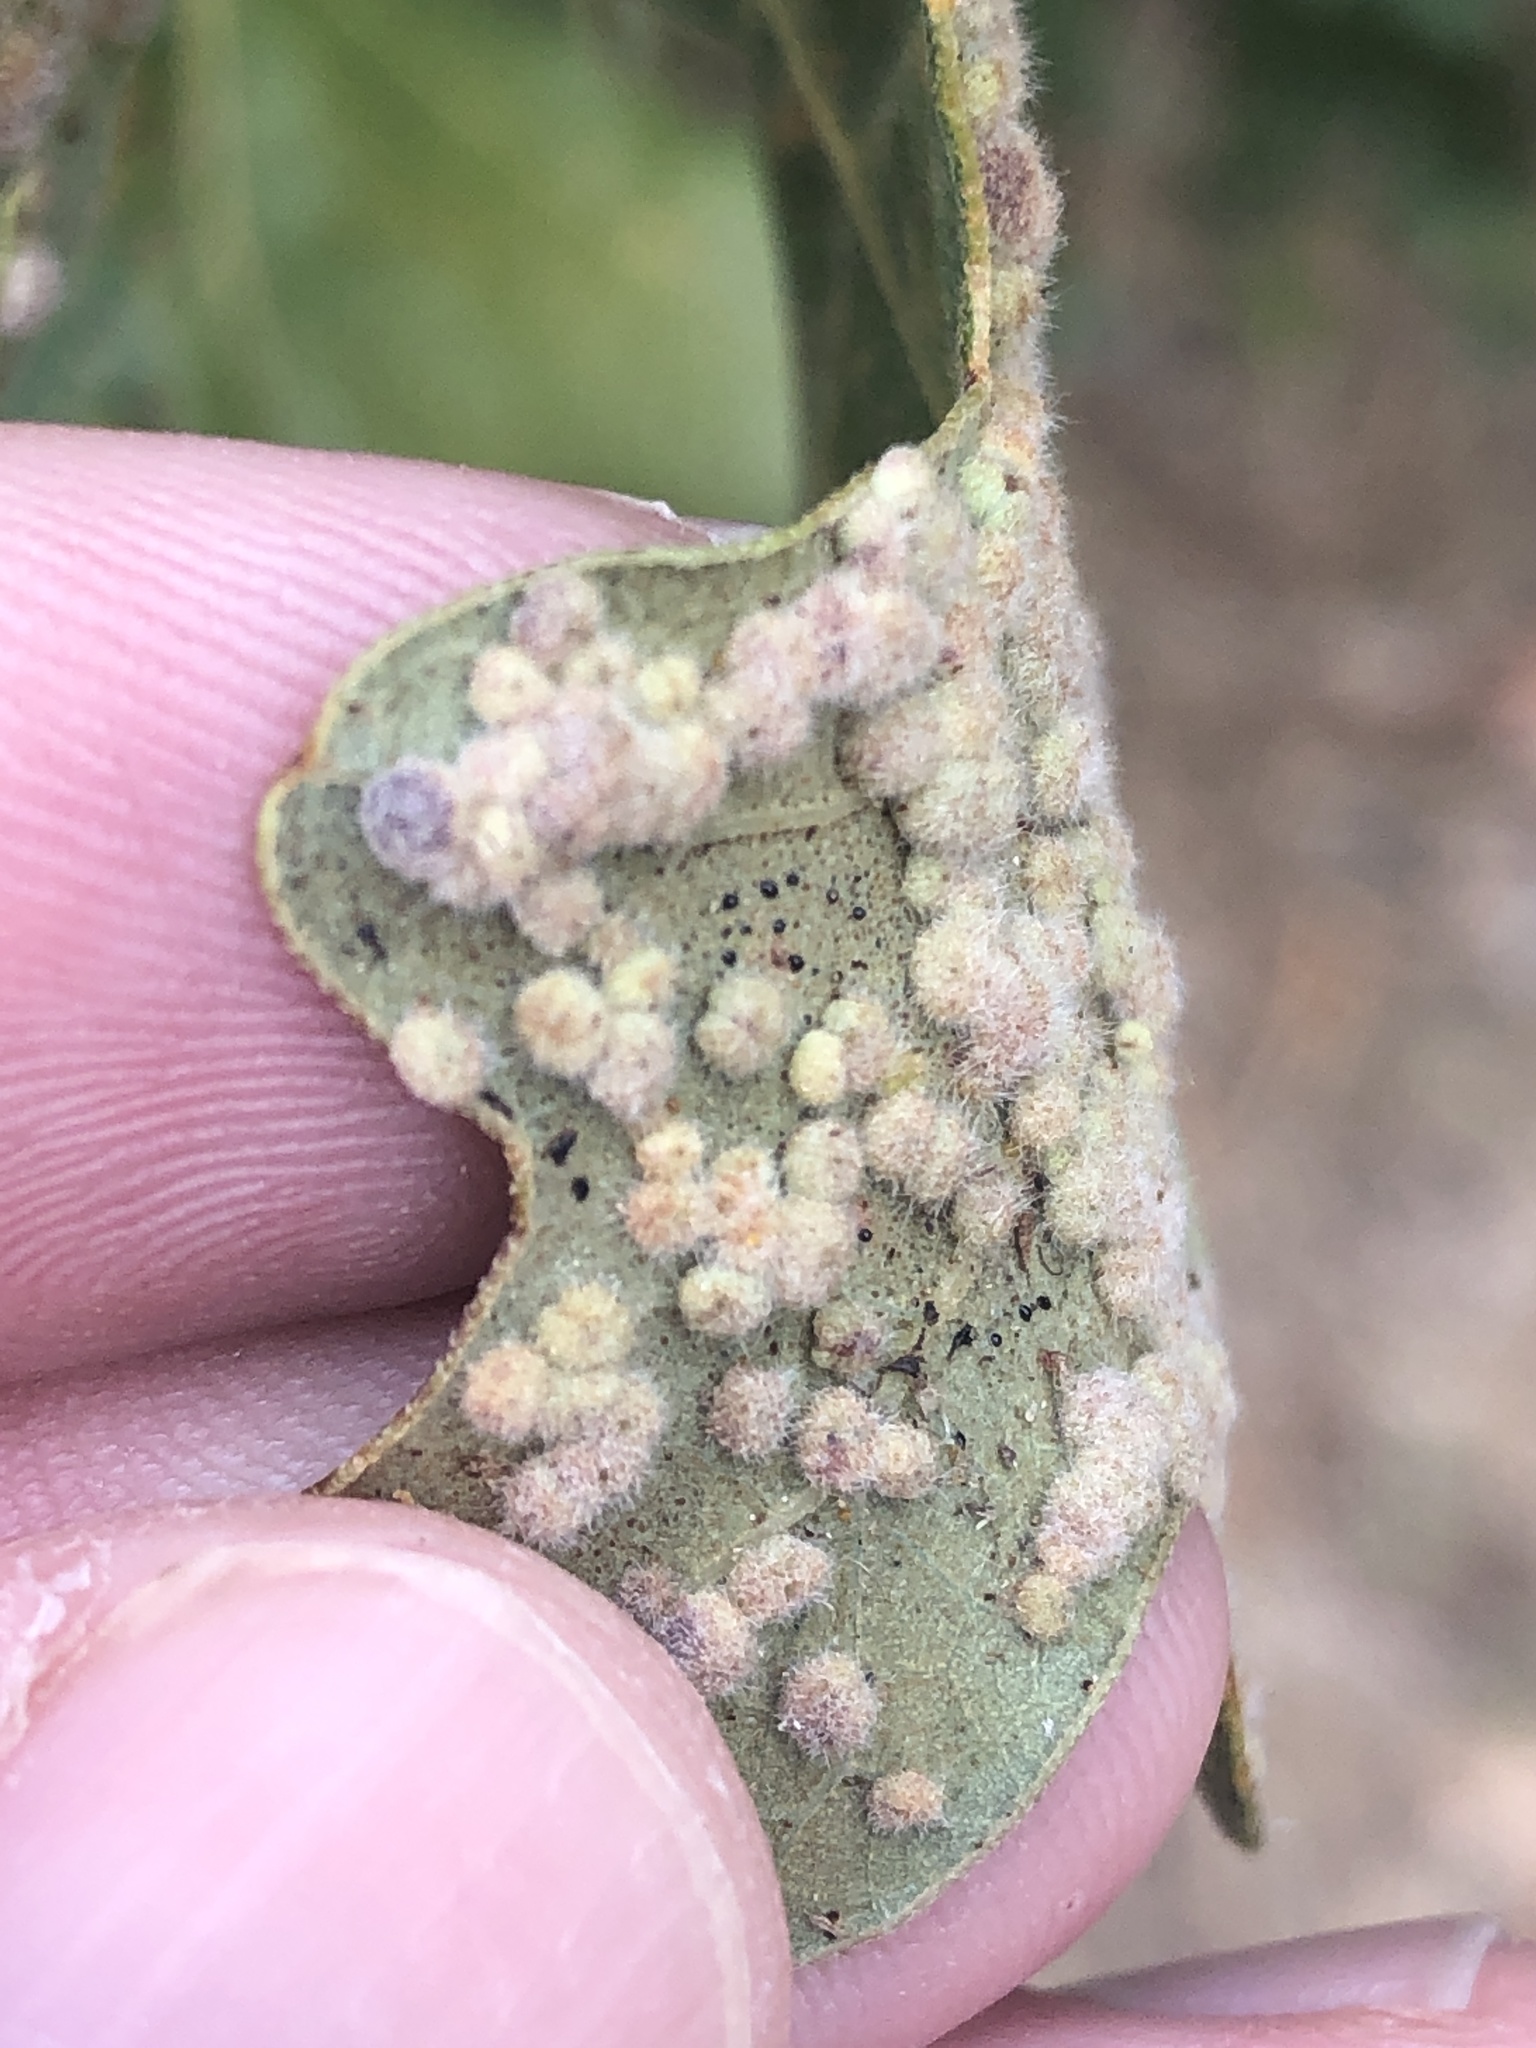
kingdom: Animalia
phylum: Arthropoda
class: Insecta
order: Hymenoptera
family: Cynipidae
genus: Neuroterus
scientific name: Neuroterus quercusverrucarum
